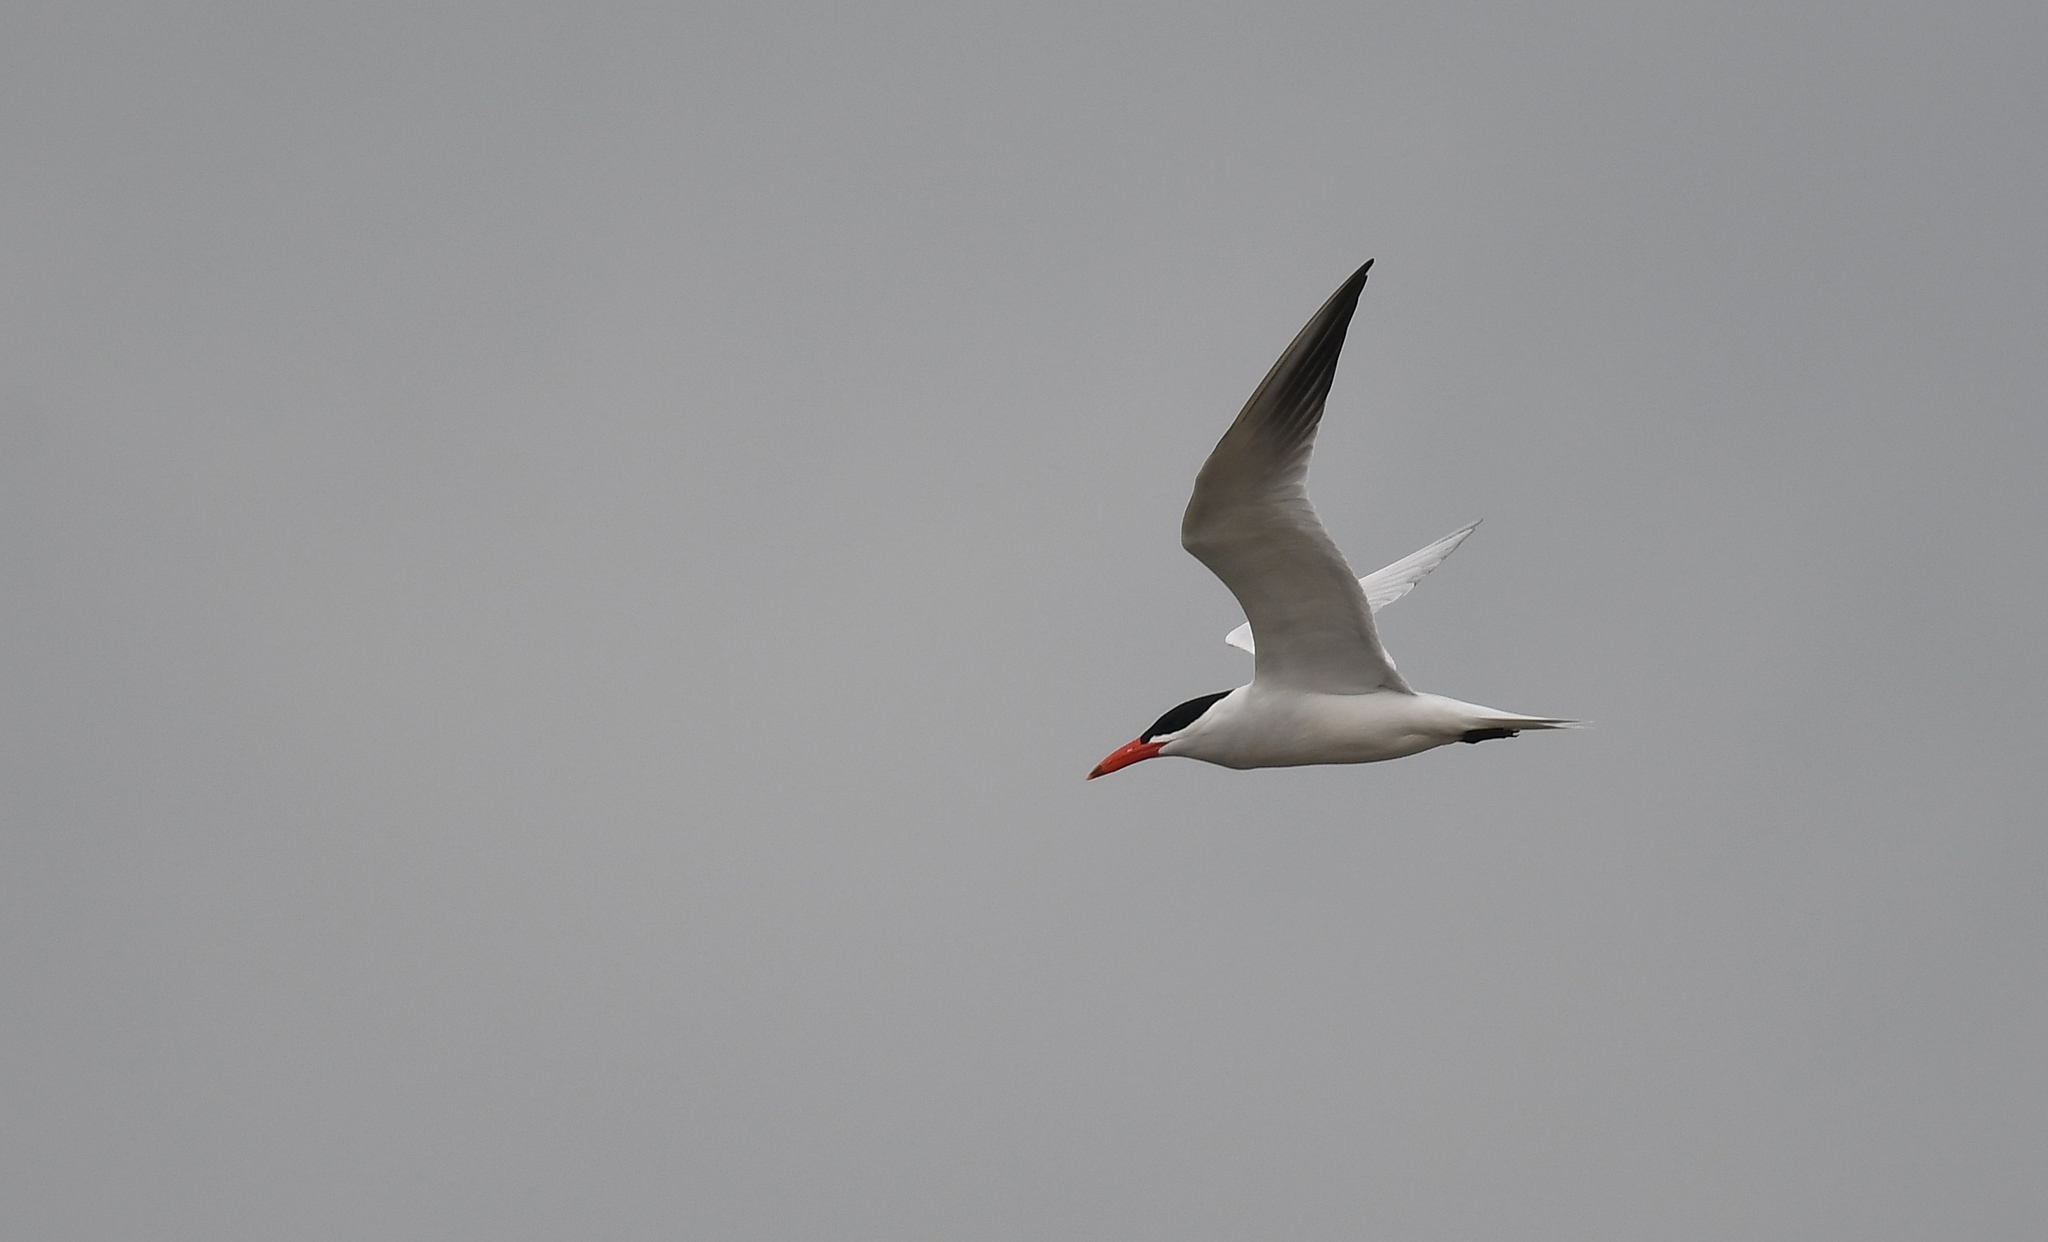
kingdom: Animalia
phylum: Chordata
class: Aves
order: Charadriiformes
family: Laridae
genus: Hydroprogne
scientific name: Hydroprogne caspia
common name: Caspian tern
